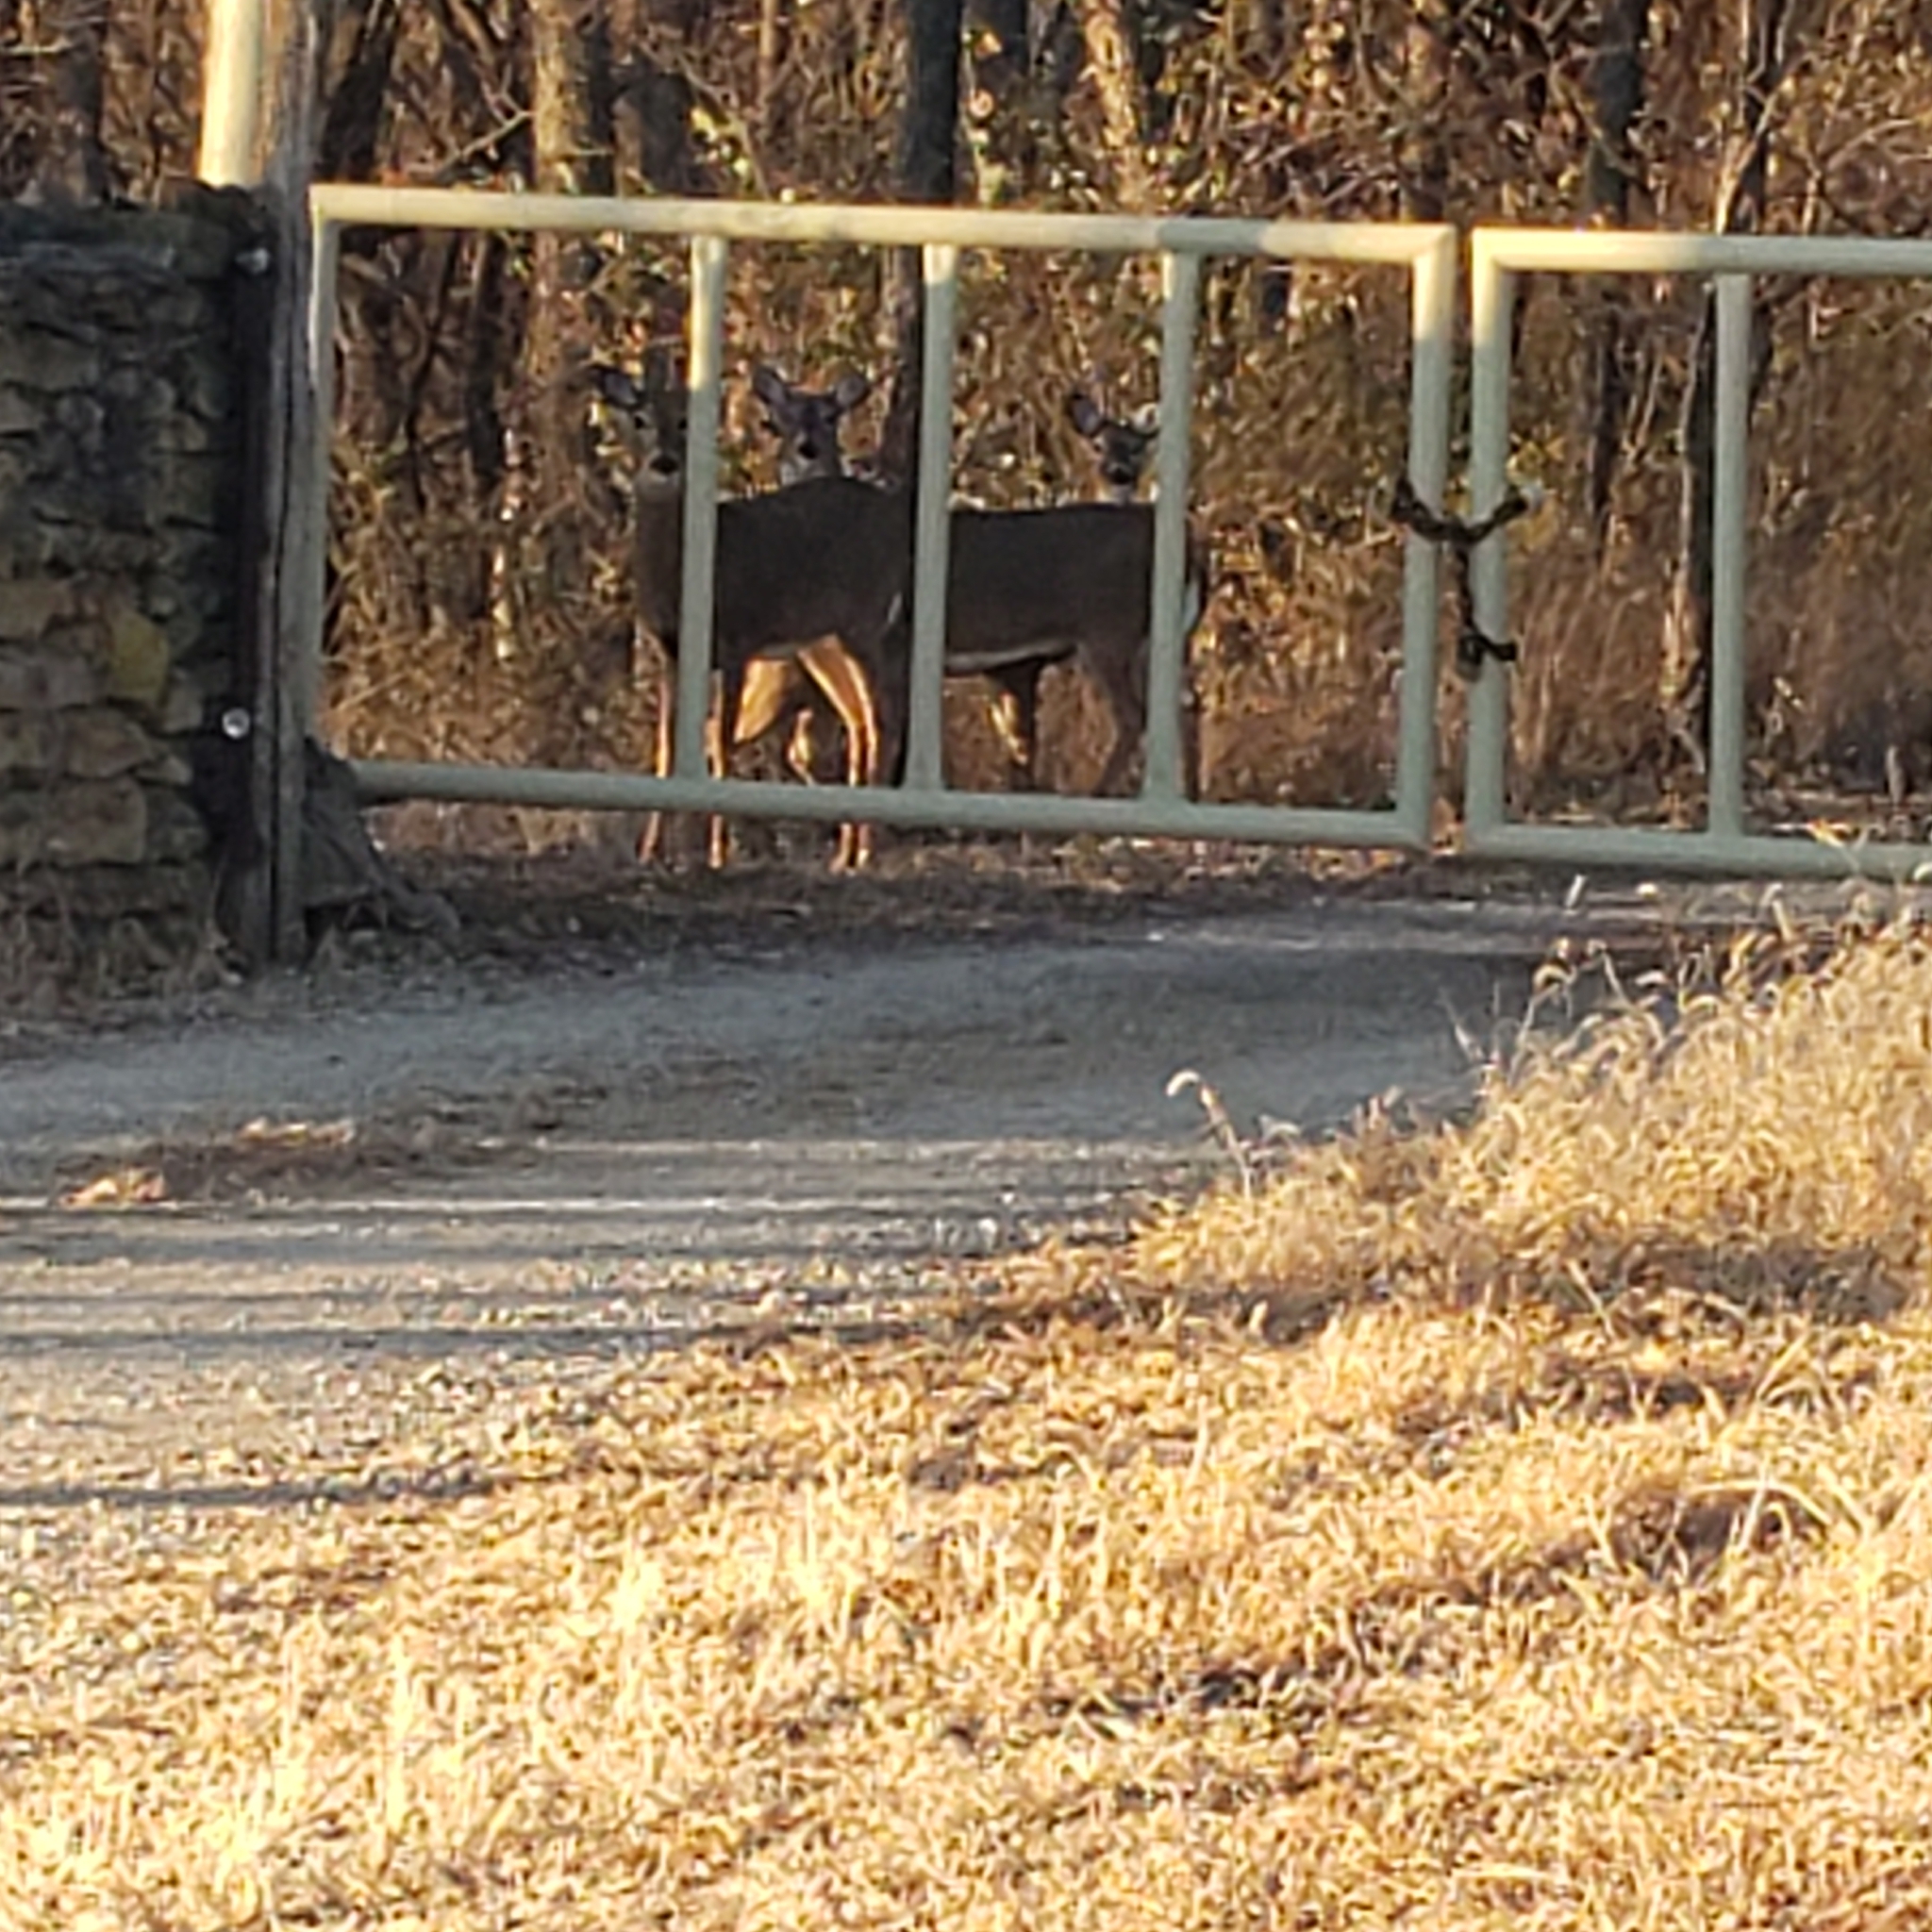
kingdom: Animalia
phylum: Chordata
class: Mammalia
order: Artiodactyla
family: Cervidae
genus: Odocoileus
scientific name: Odocoileus virginianus
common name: White-tailed deer
